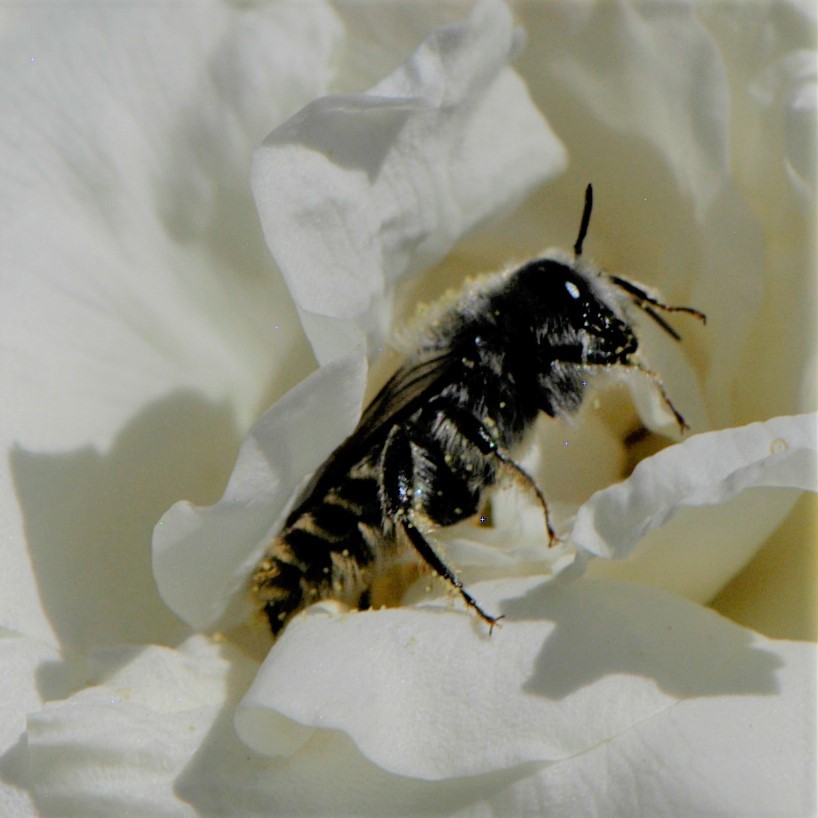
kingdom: Animalia
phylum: Arthropoda
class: Insecta
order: Hymenoptera
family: Megachilidae
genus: Lithurgopsis
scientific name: Lithurgopsis apicalis
